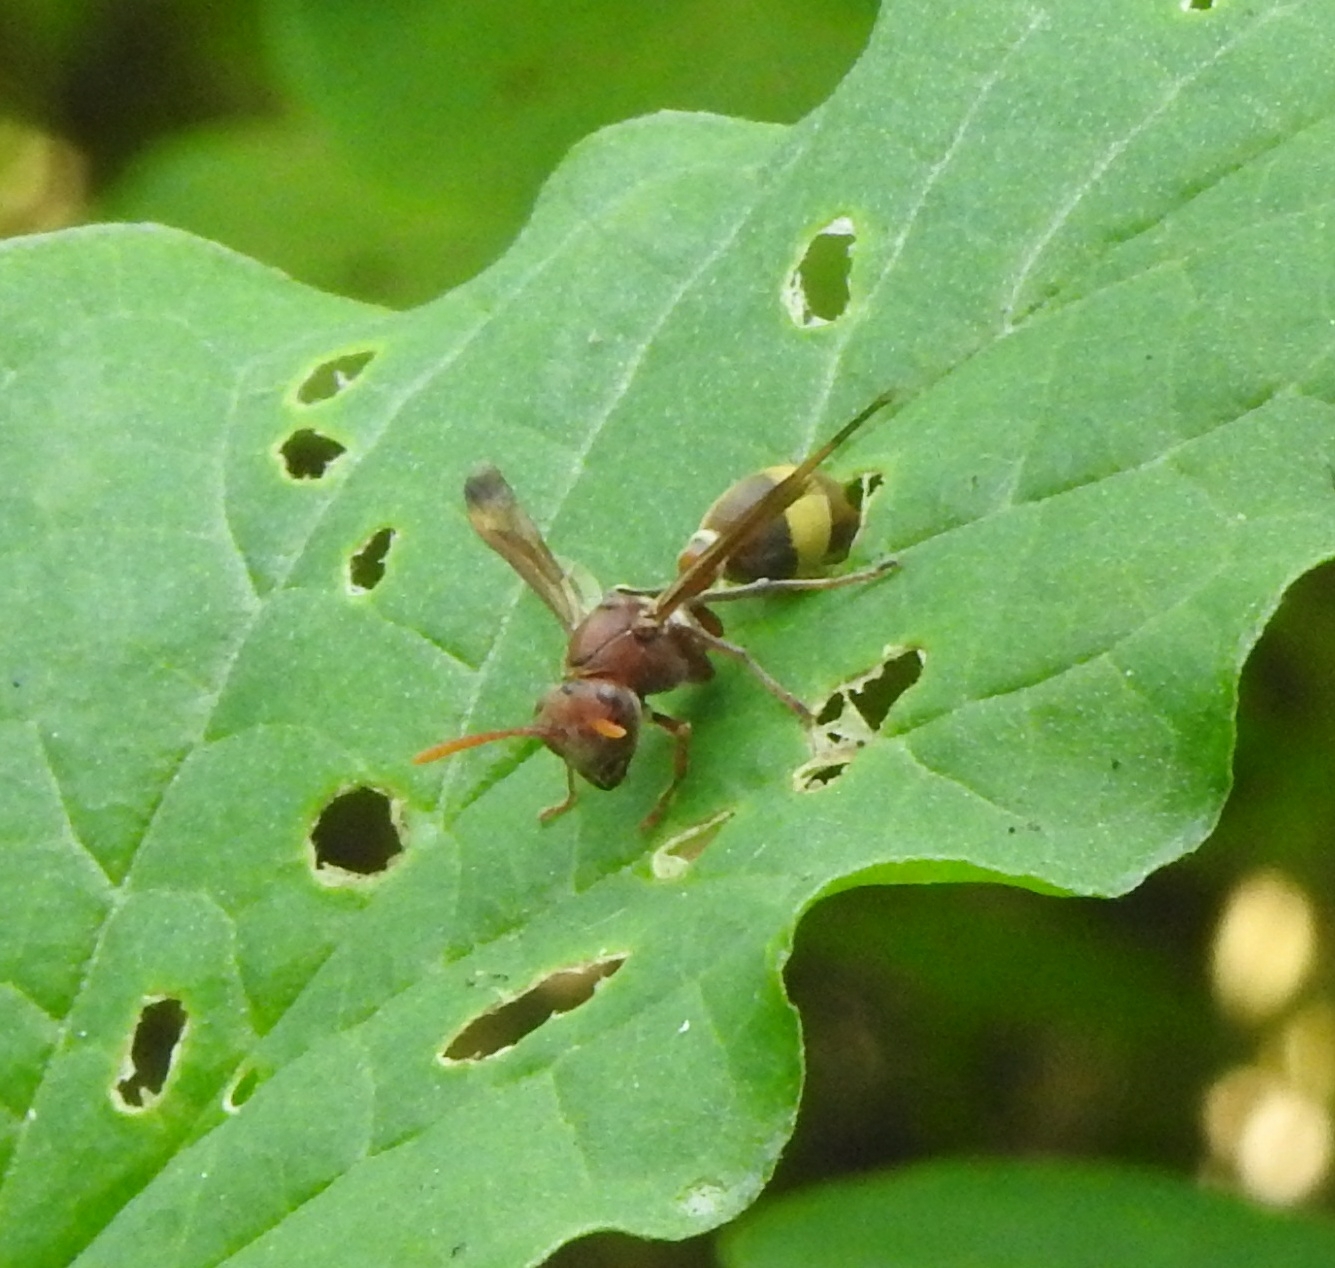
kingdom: Animalia
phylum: Arthropoda
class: Insecta
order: Hymenoptera
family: Vespidae
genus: Ropalidia
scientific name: Ropalidia
